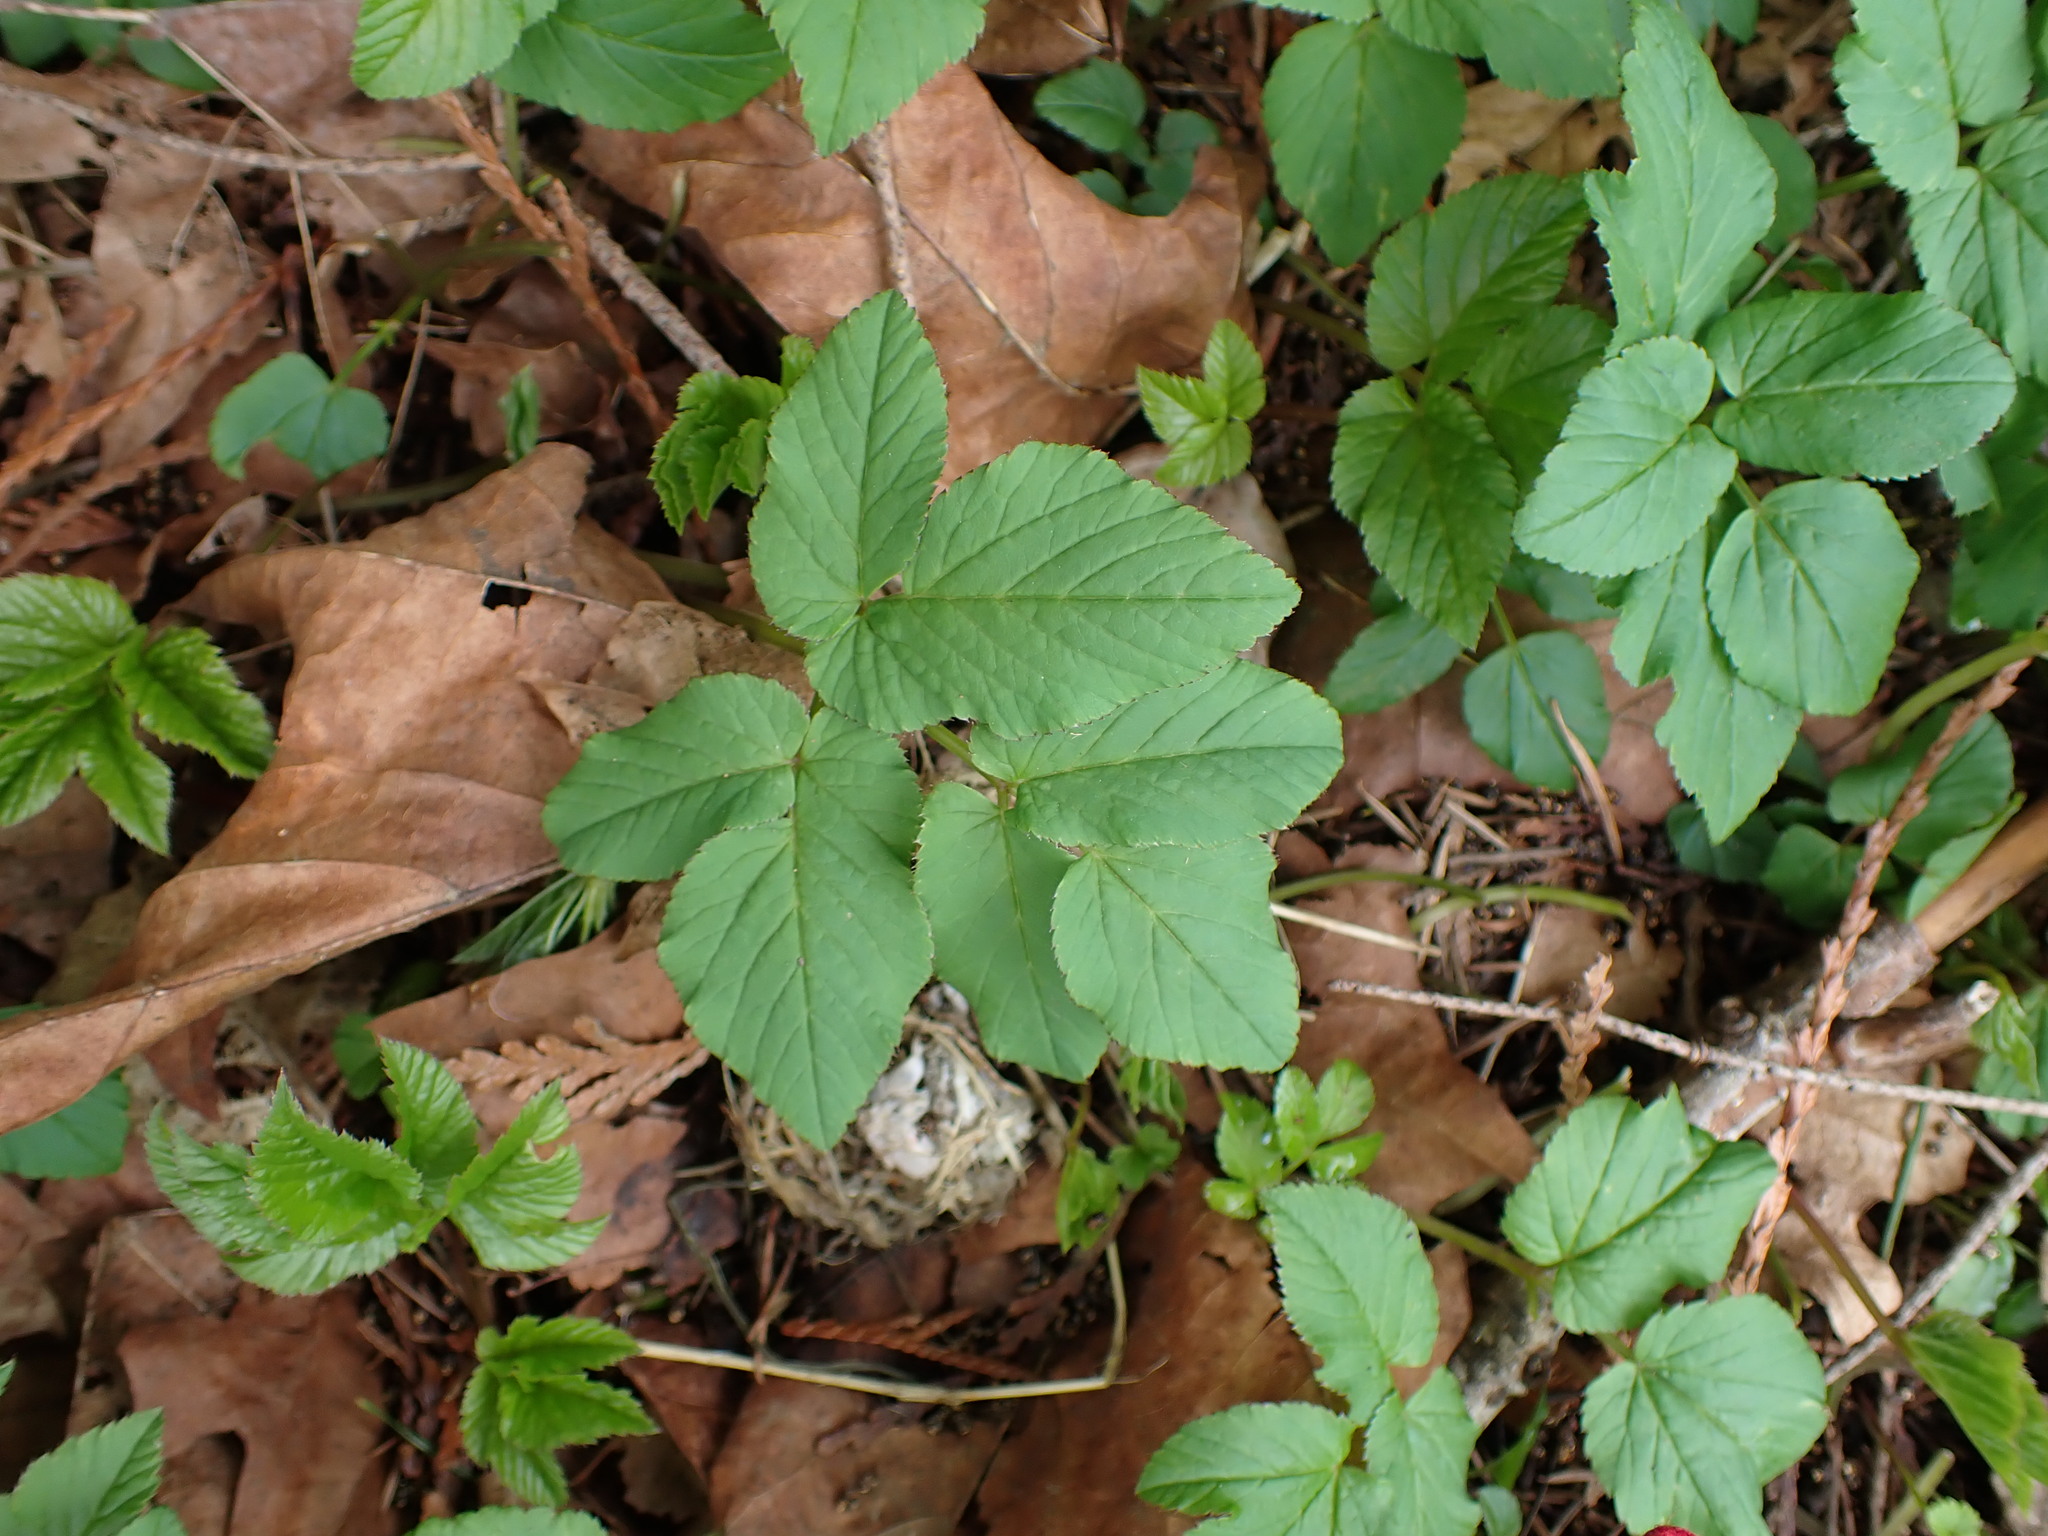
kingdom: Plantae
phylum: Tracheophyta
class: Magnoliopsida
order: Apiales
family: Apiaceae
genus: Aegopodium
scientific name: Aegopodium podagraria
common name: Ground-elder
